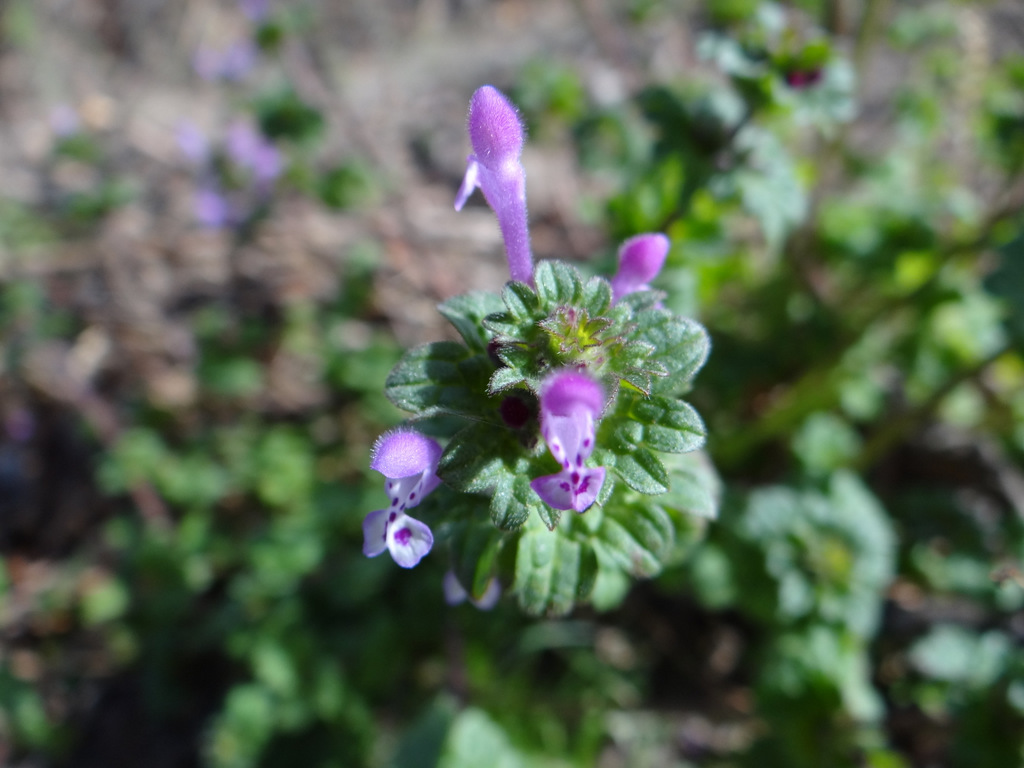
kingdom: Plantae
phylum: Tracheophyta
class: Magnoliopsida
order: Lamiales
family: Lamiaceae
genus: Lamium
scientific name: Lamium amplexicaule
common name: Henbit dead-nettle
